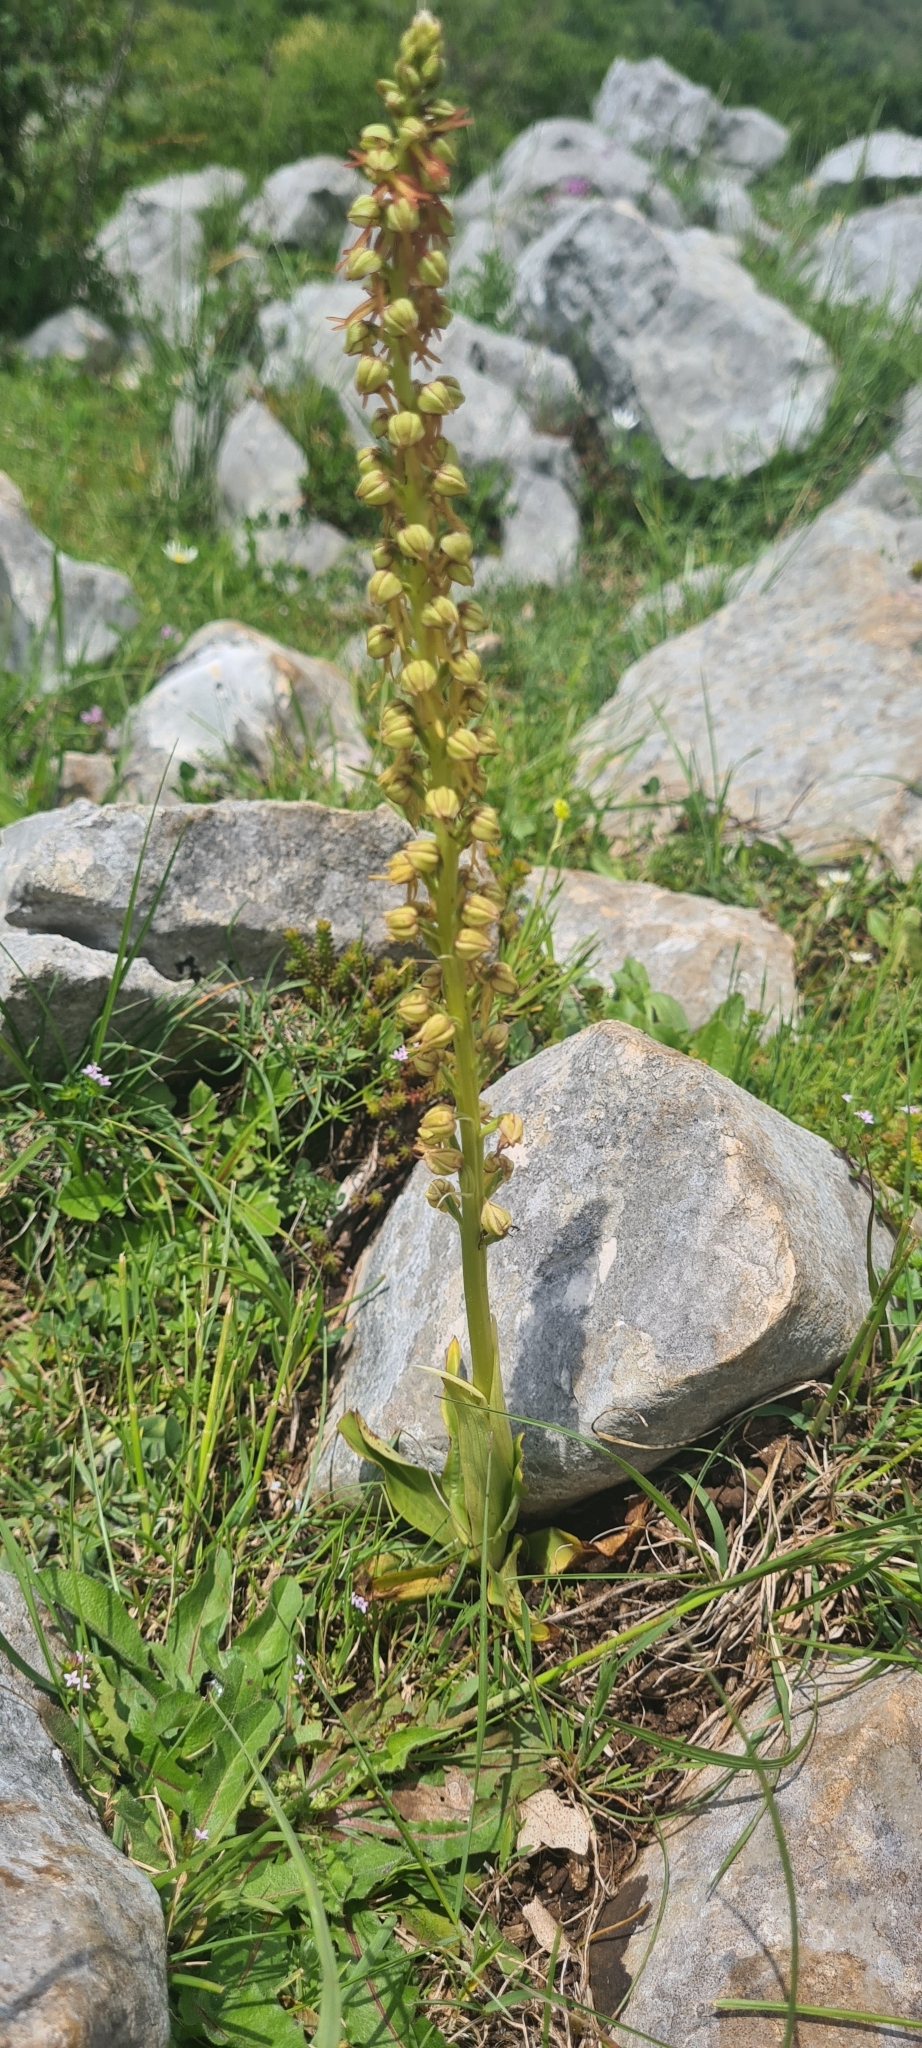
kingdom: Plantae
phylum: Tracheophyta
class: Liliopsida
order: Asparagales
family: Orchidaceae
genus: Orchis
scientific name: Orchis anthropophora
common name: Man orchid
